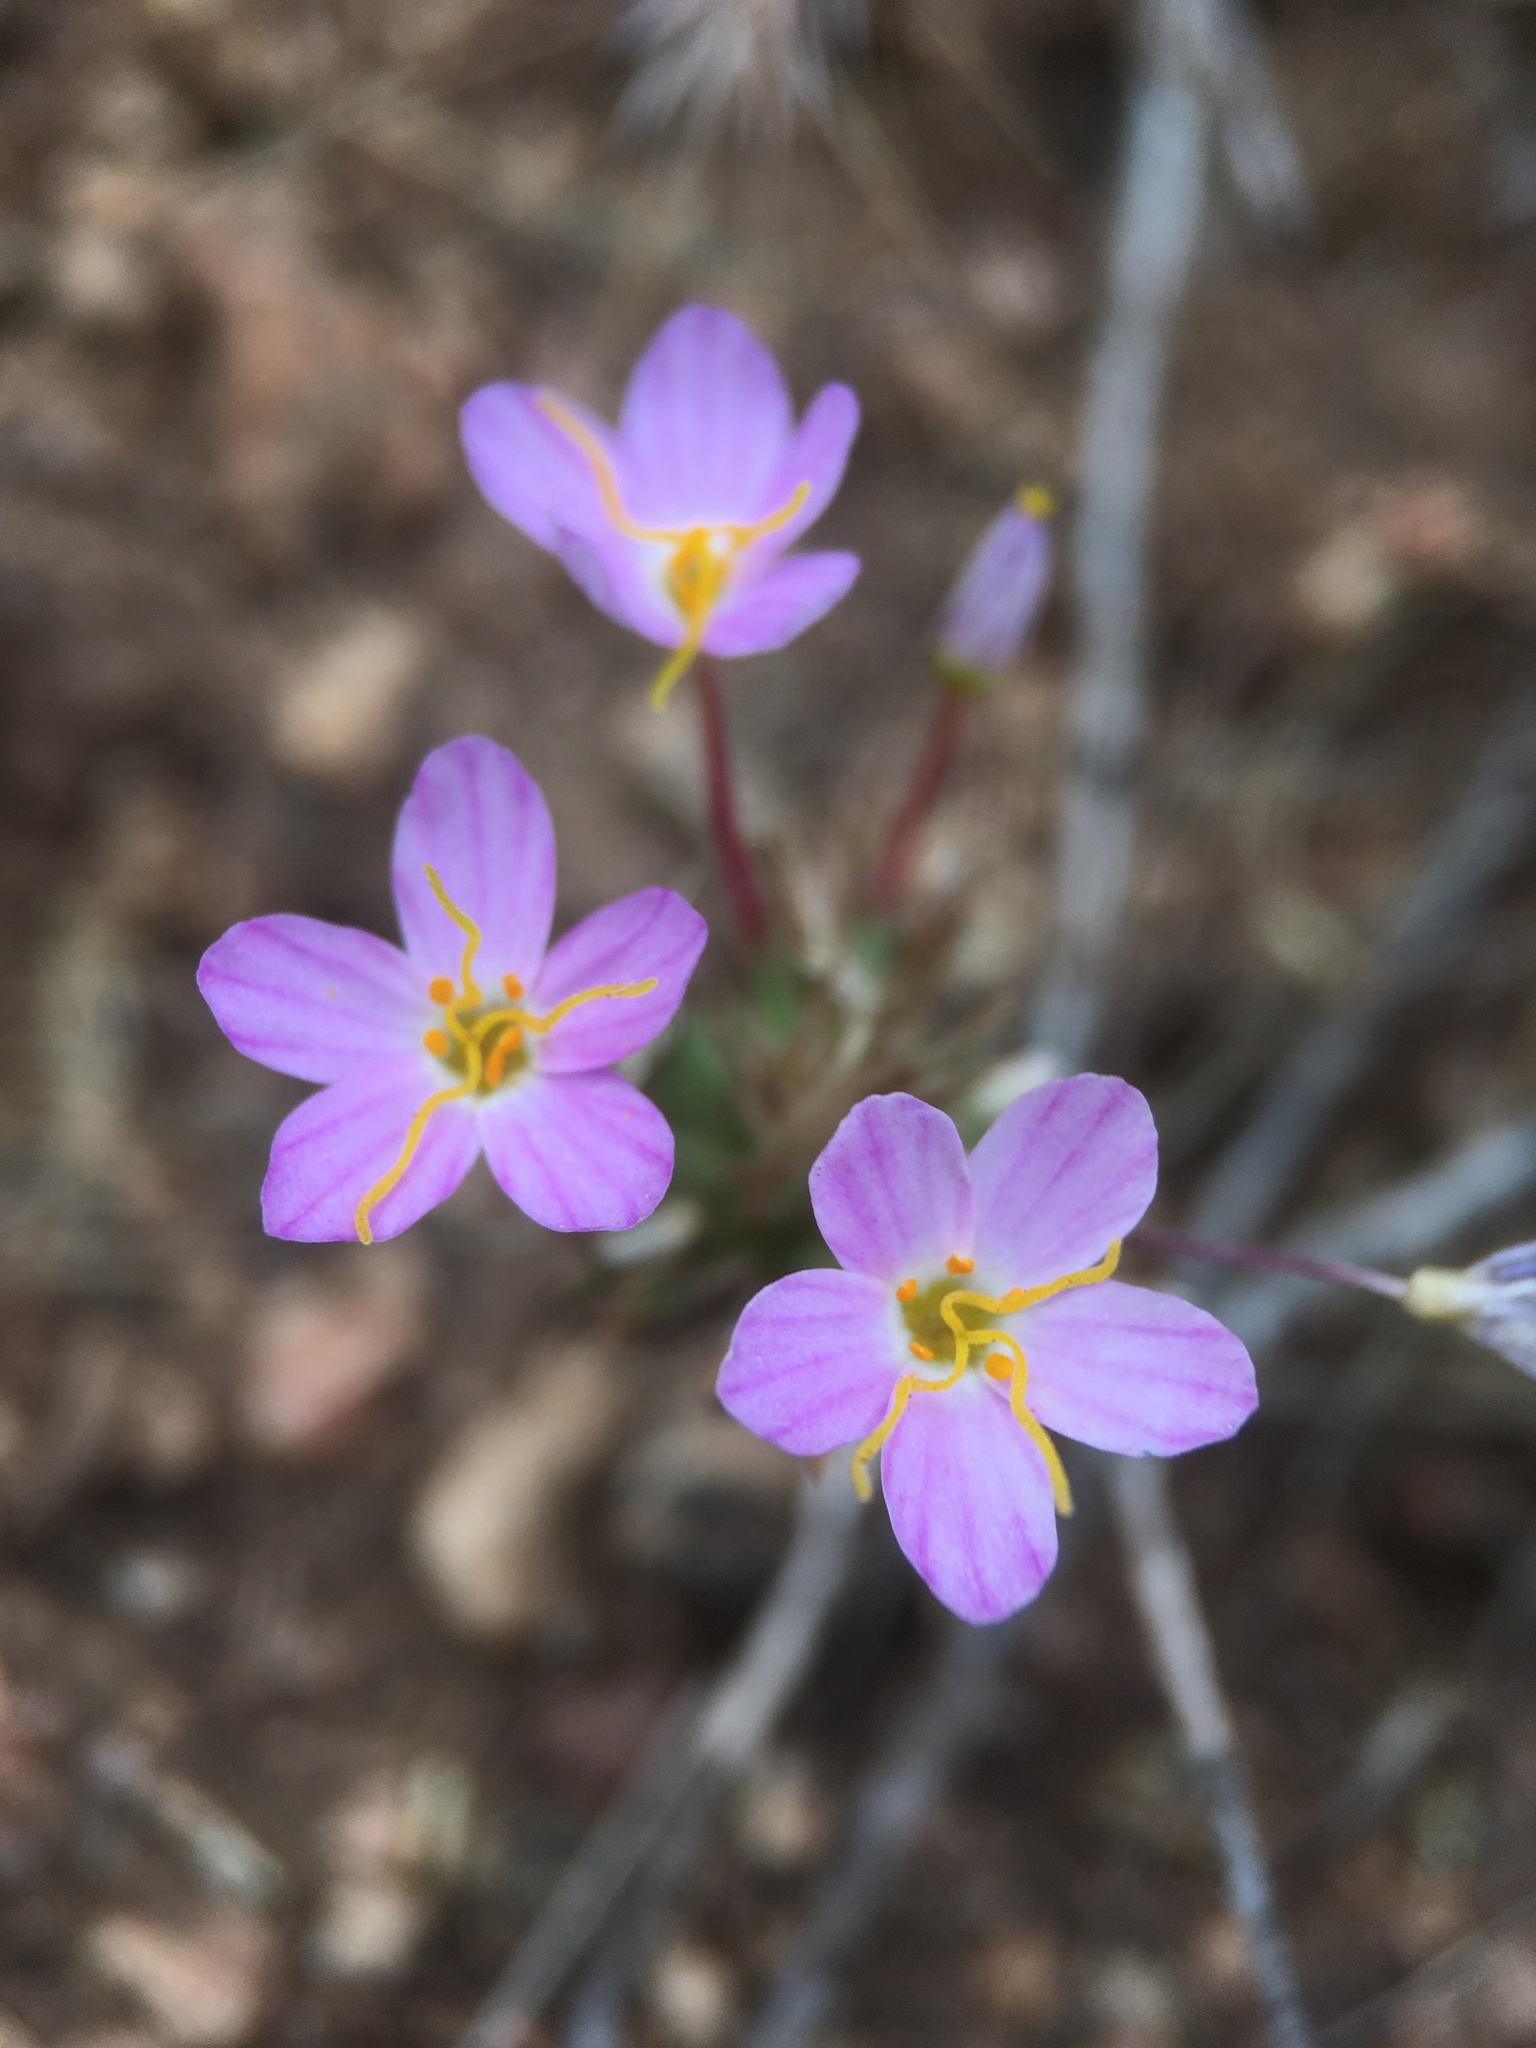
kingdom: Plantae
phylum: Tracheophyta
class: Magnoliopsida
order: Ericales
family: Polemoniaceae
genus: Leptosiphon
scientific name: Leptosiphon parviflorus
